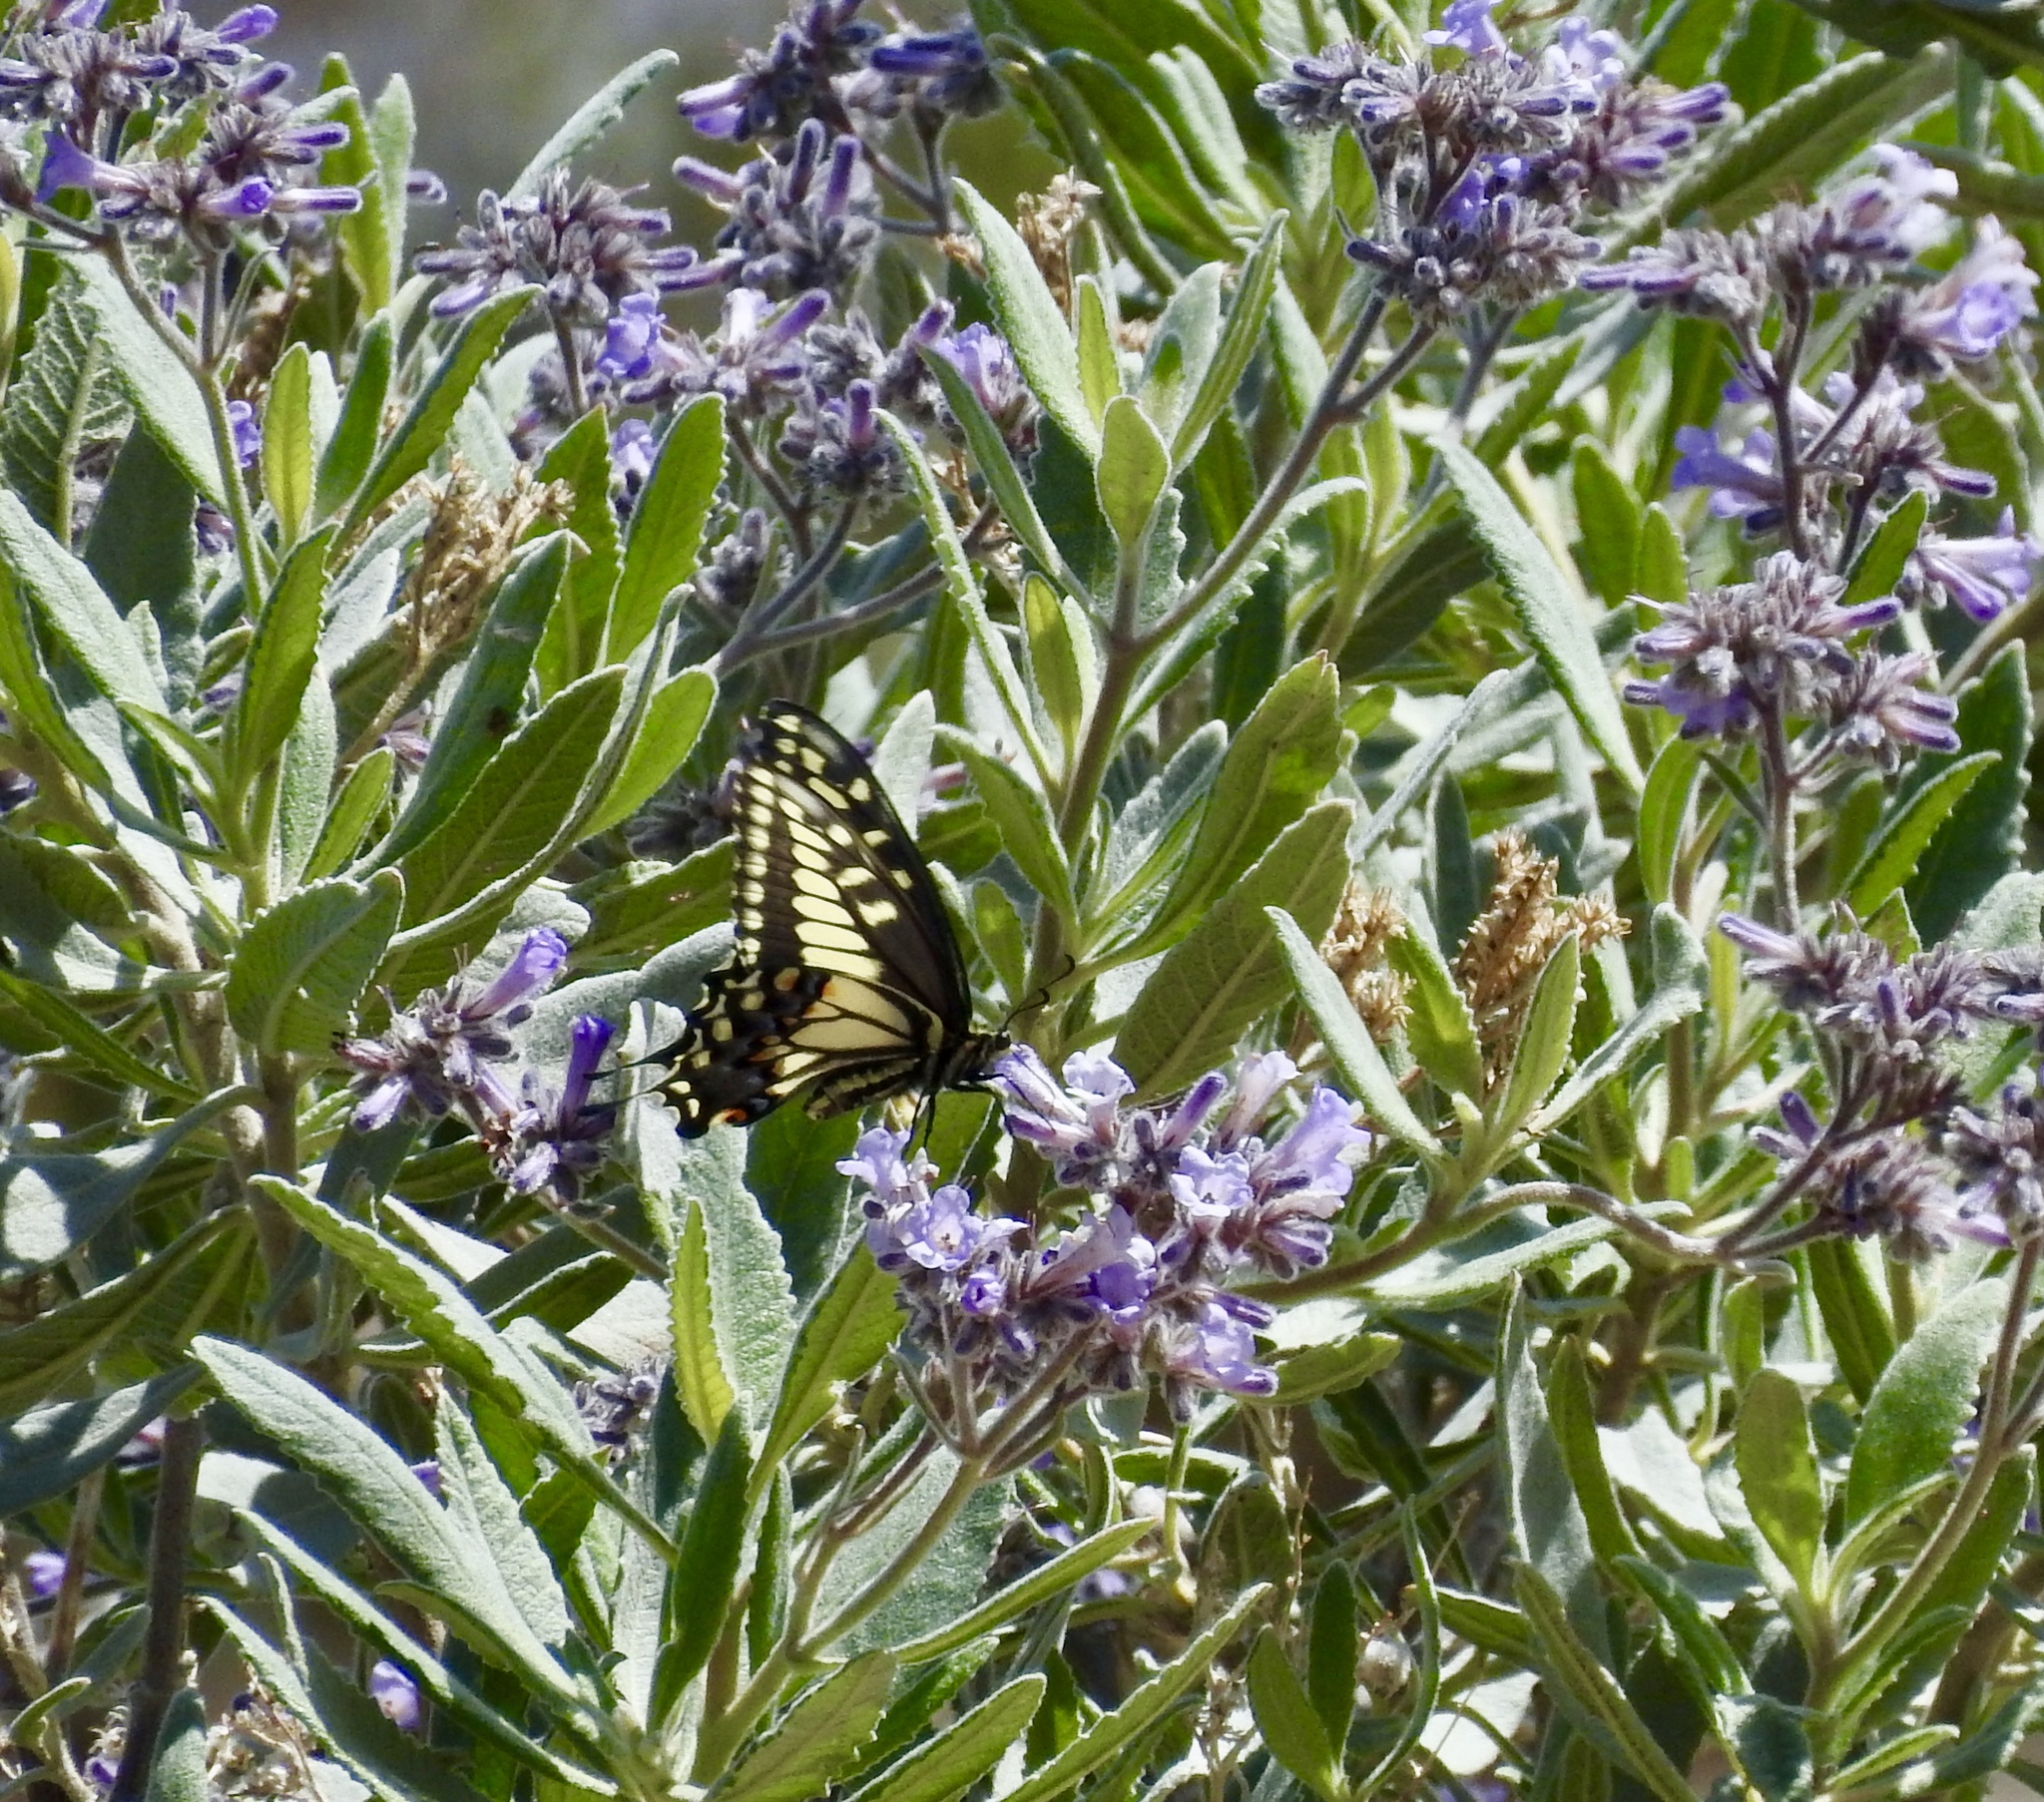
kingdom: Animalia
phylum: Arthropoda
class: Insecta
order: Lepidoptera
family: Papilionidae
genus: Papilio
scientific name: Papilio polyxenes
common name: Black swallowtail
